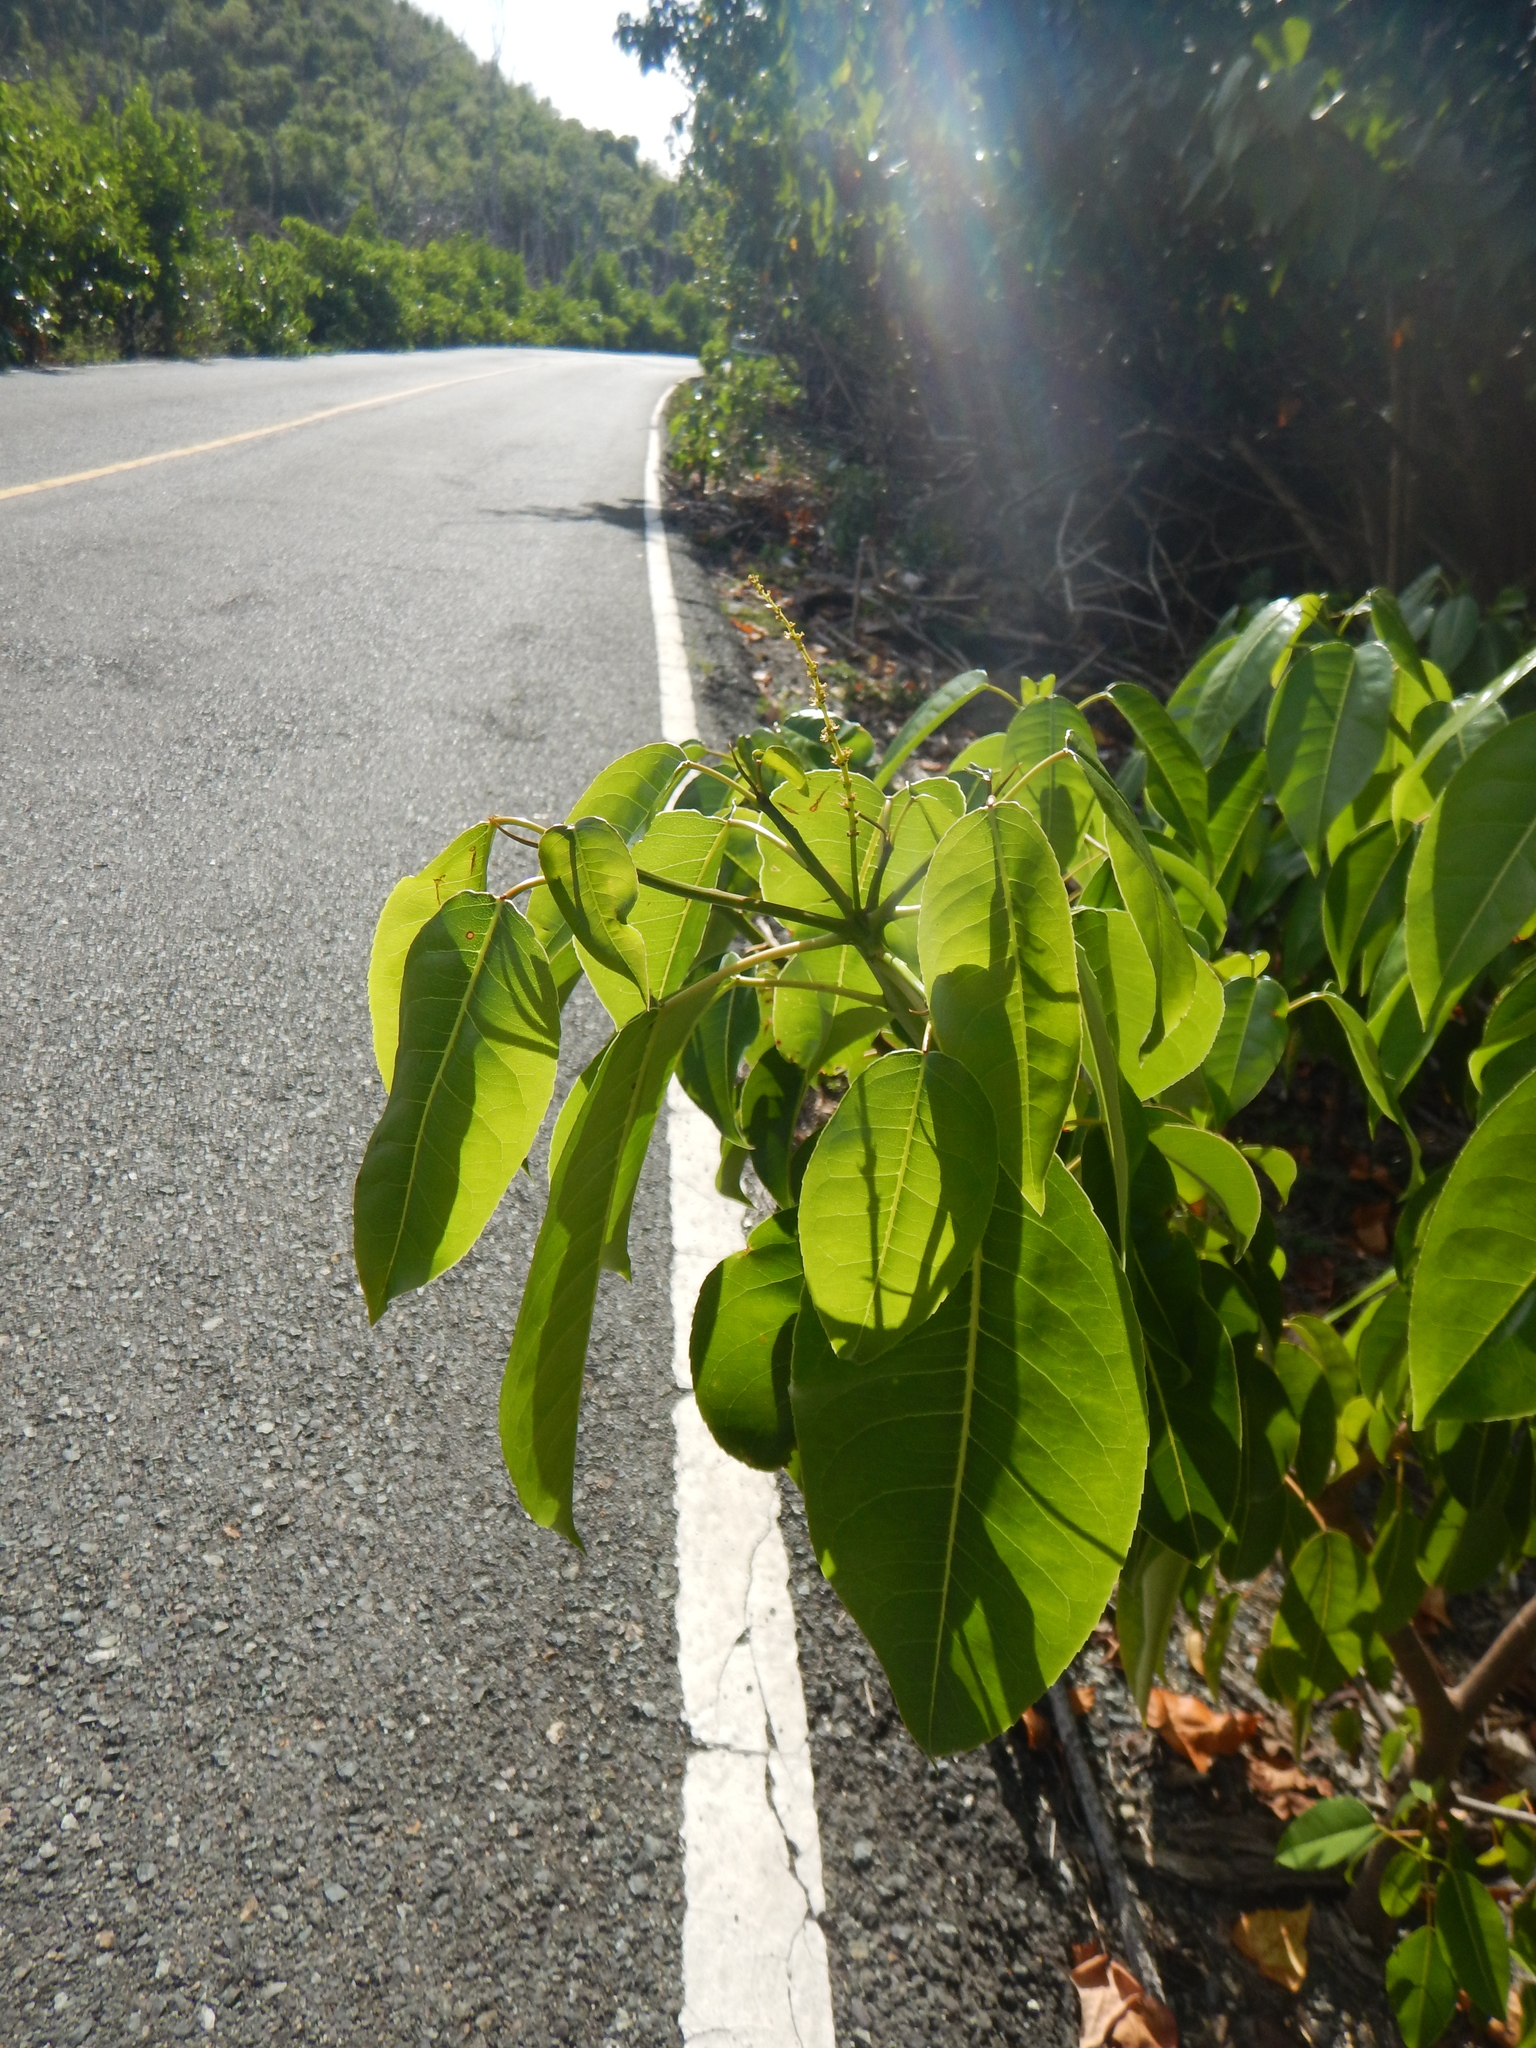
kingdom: Plantae
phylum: Tracheophyta
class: Magnoliopsida
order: Malpighiales
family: Euphorbiaceae
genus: Hippomane
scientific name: Hippomane mancinella
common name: Manchineel
